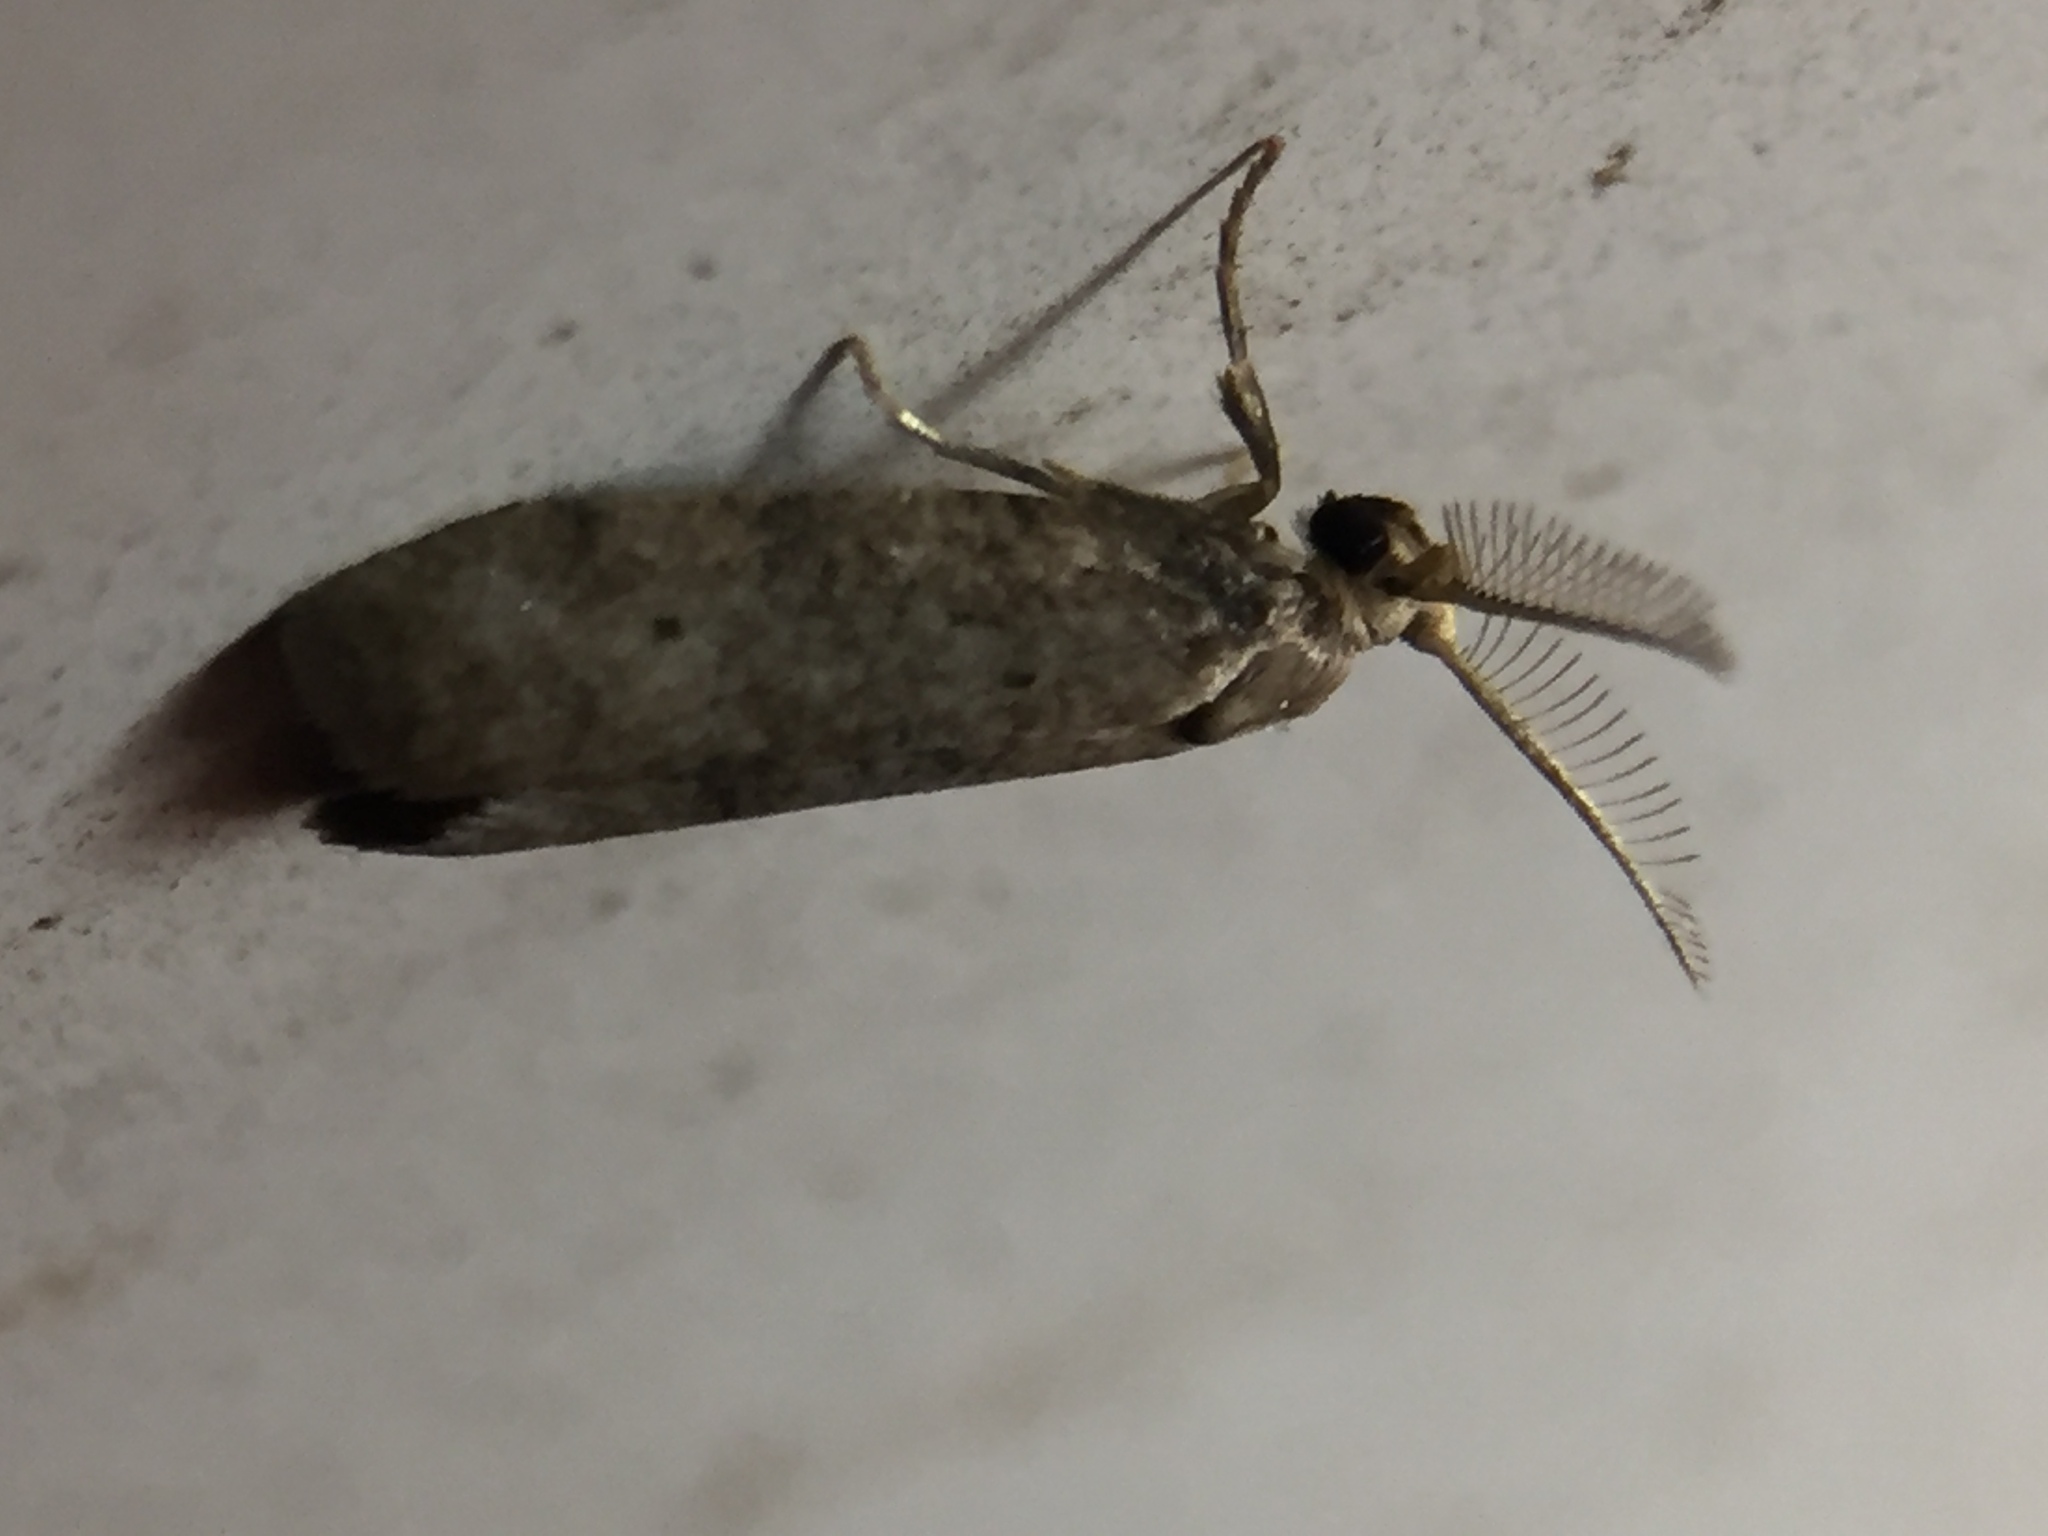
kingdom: Animalia
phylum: Arthropoda
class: Insecta
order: Lepidoptera
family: Galacticidae
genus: Tanaoctena
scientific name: Tanaoctena dubia
